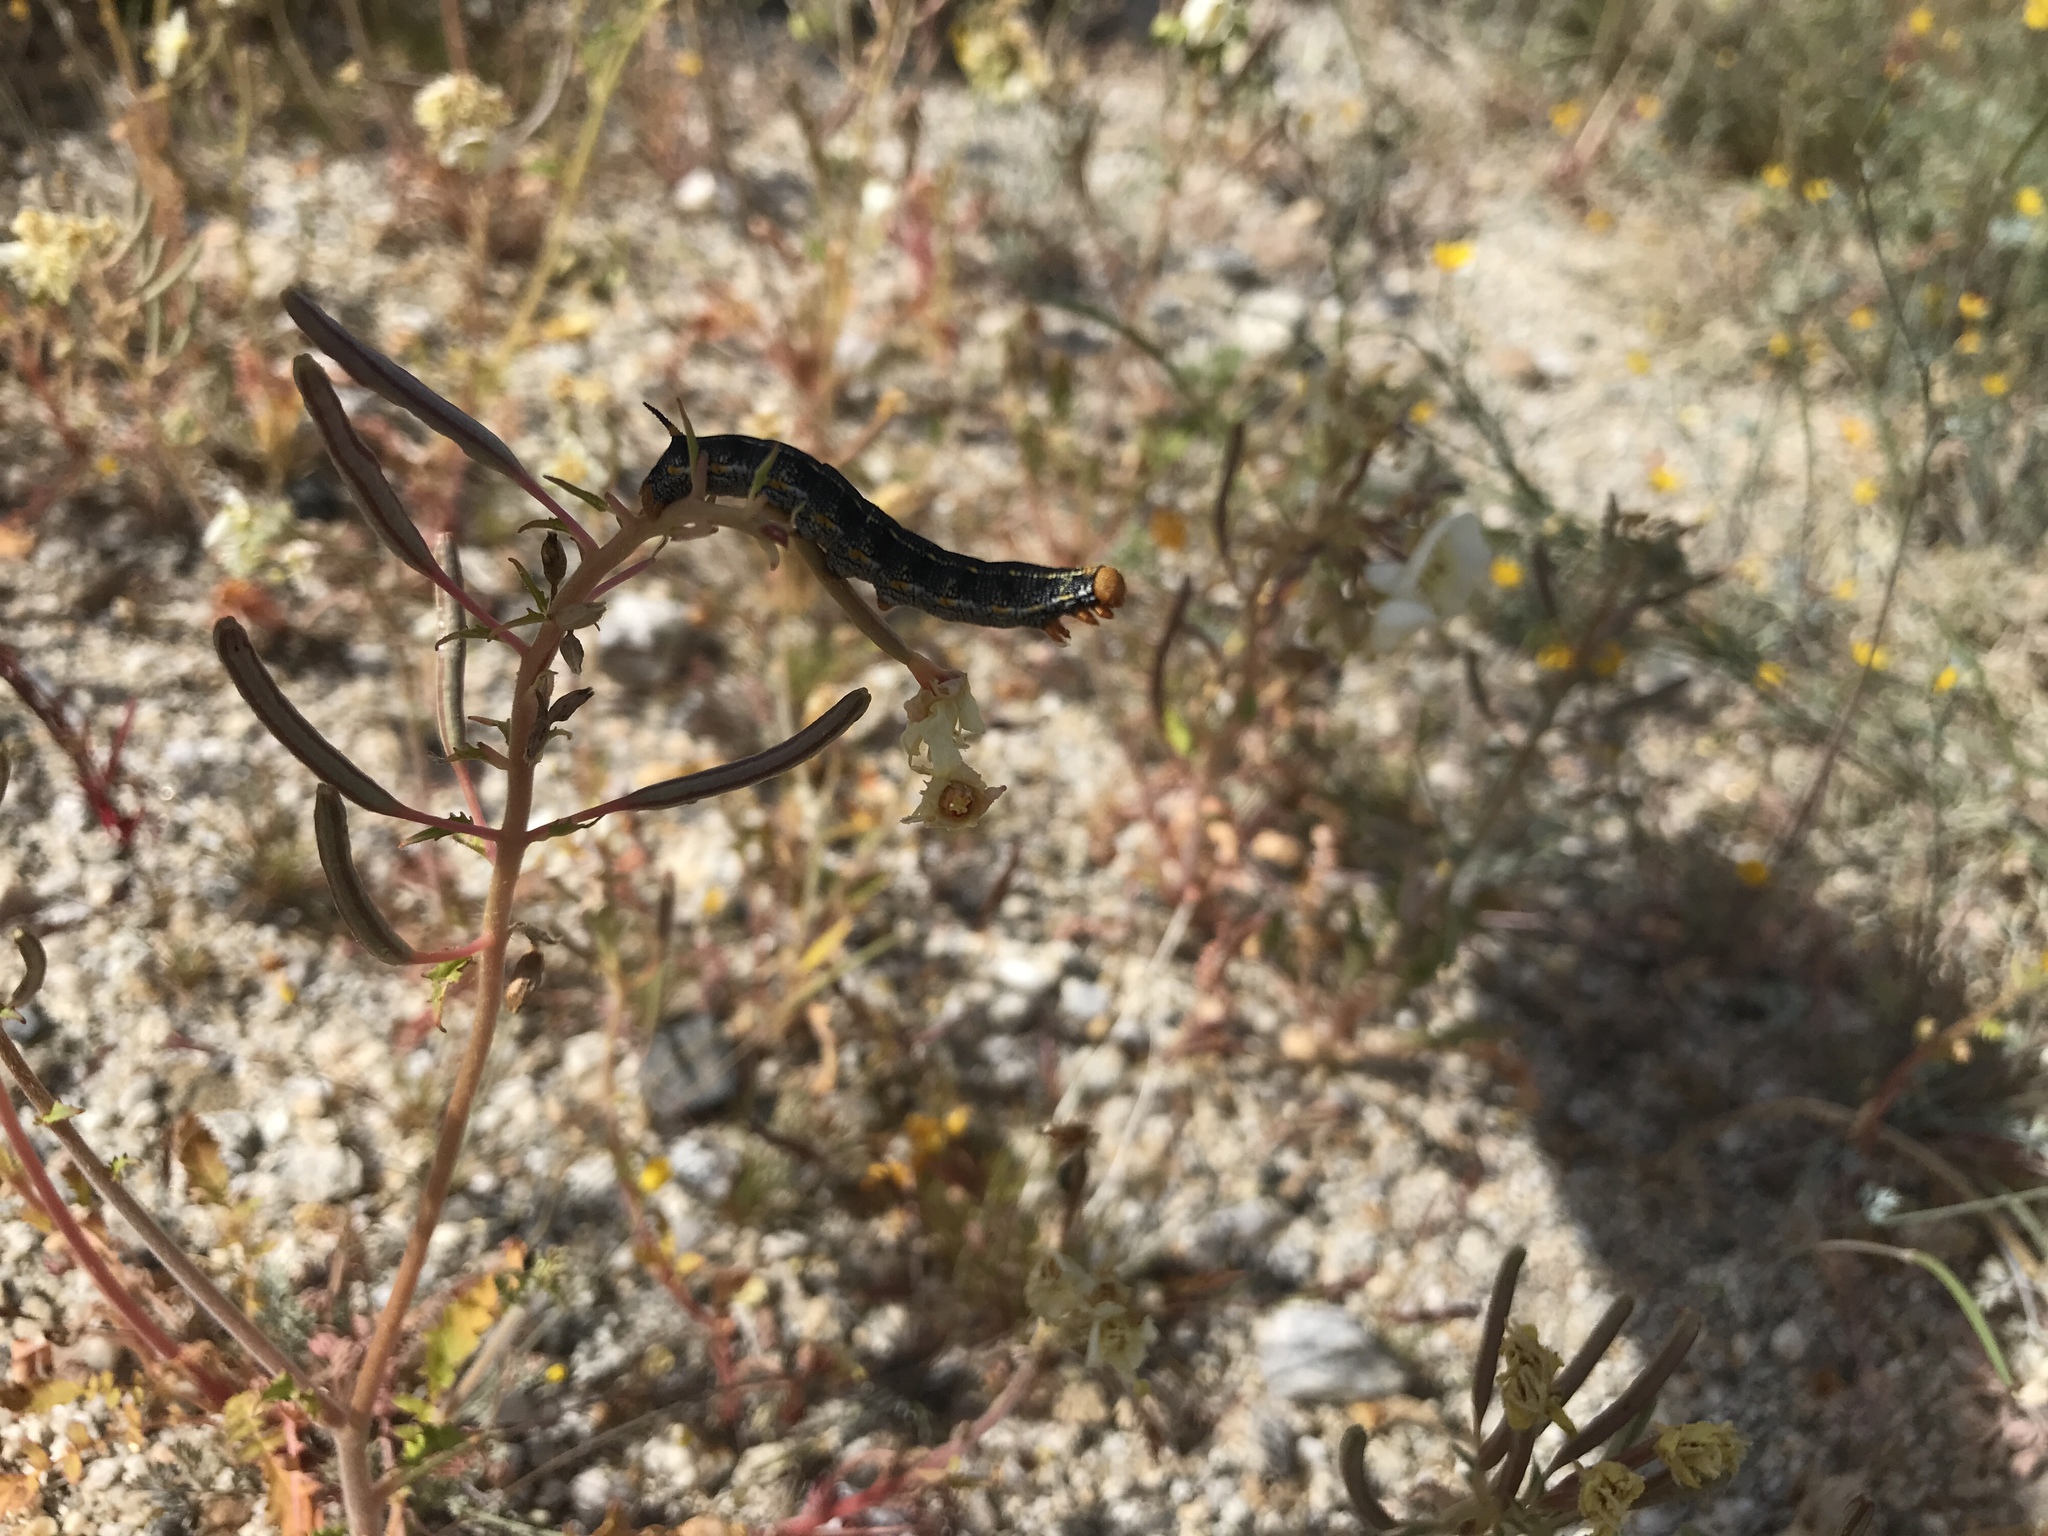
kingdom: Animalia
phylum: Arthropoda
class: Insecta
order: Lepidoptera
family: Sphingidae
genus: Hyles
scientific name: Hyles lineata
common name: White-lined sphinx
